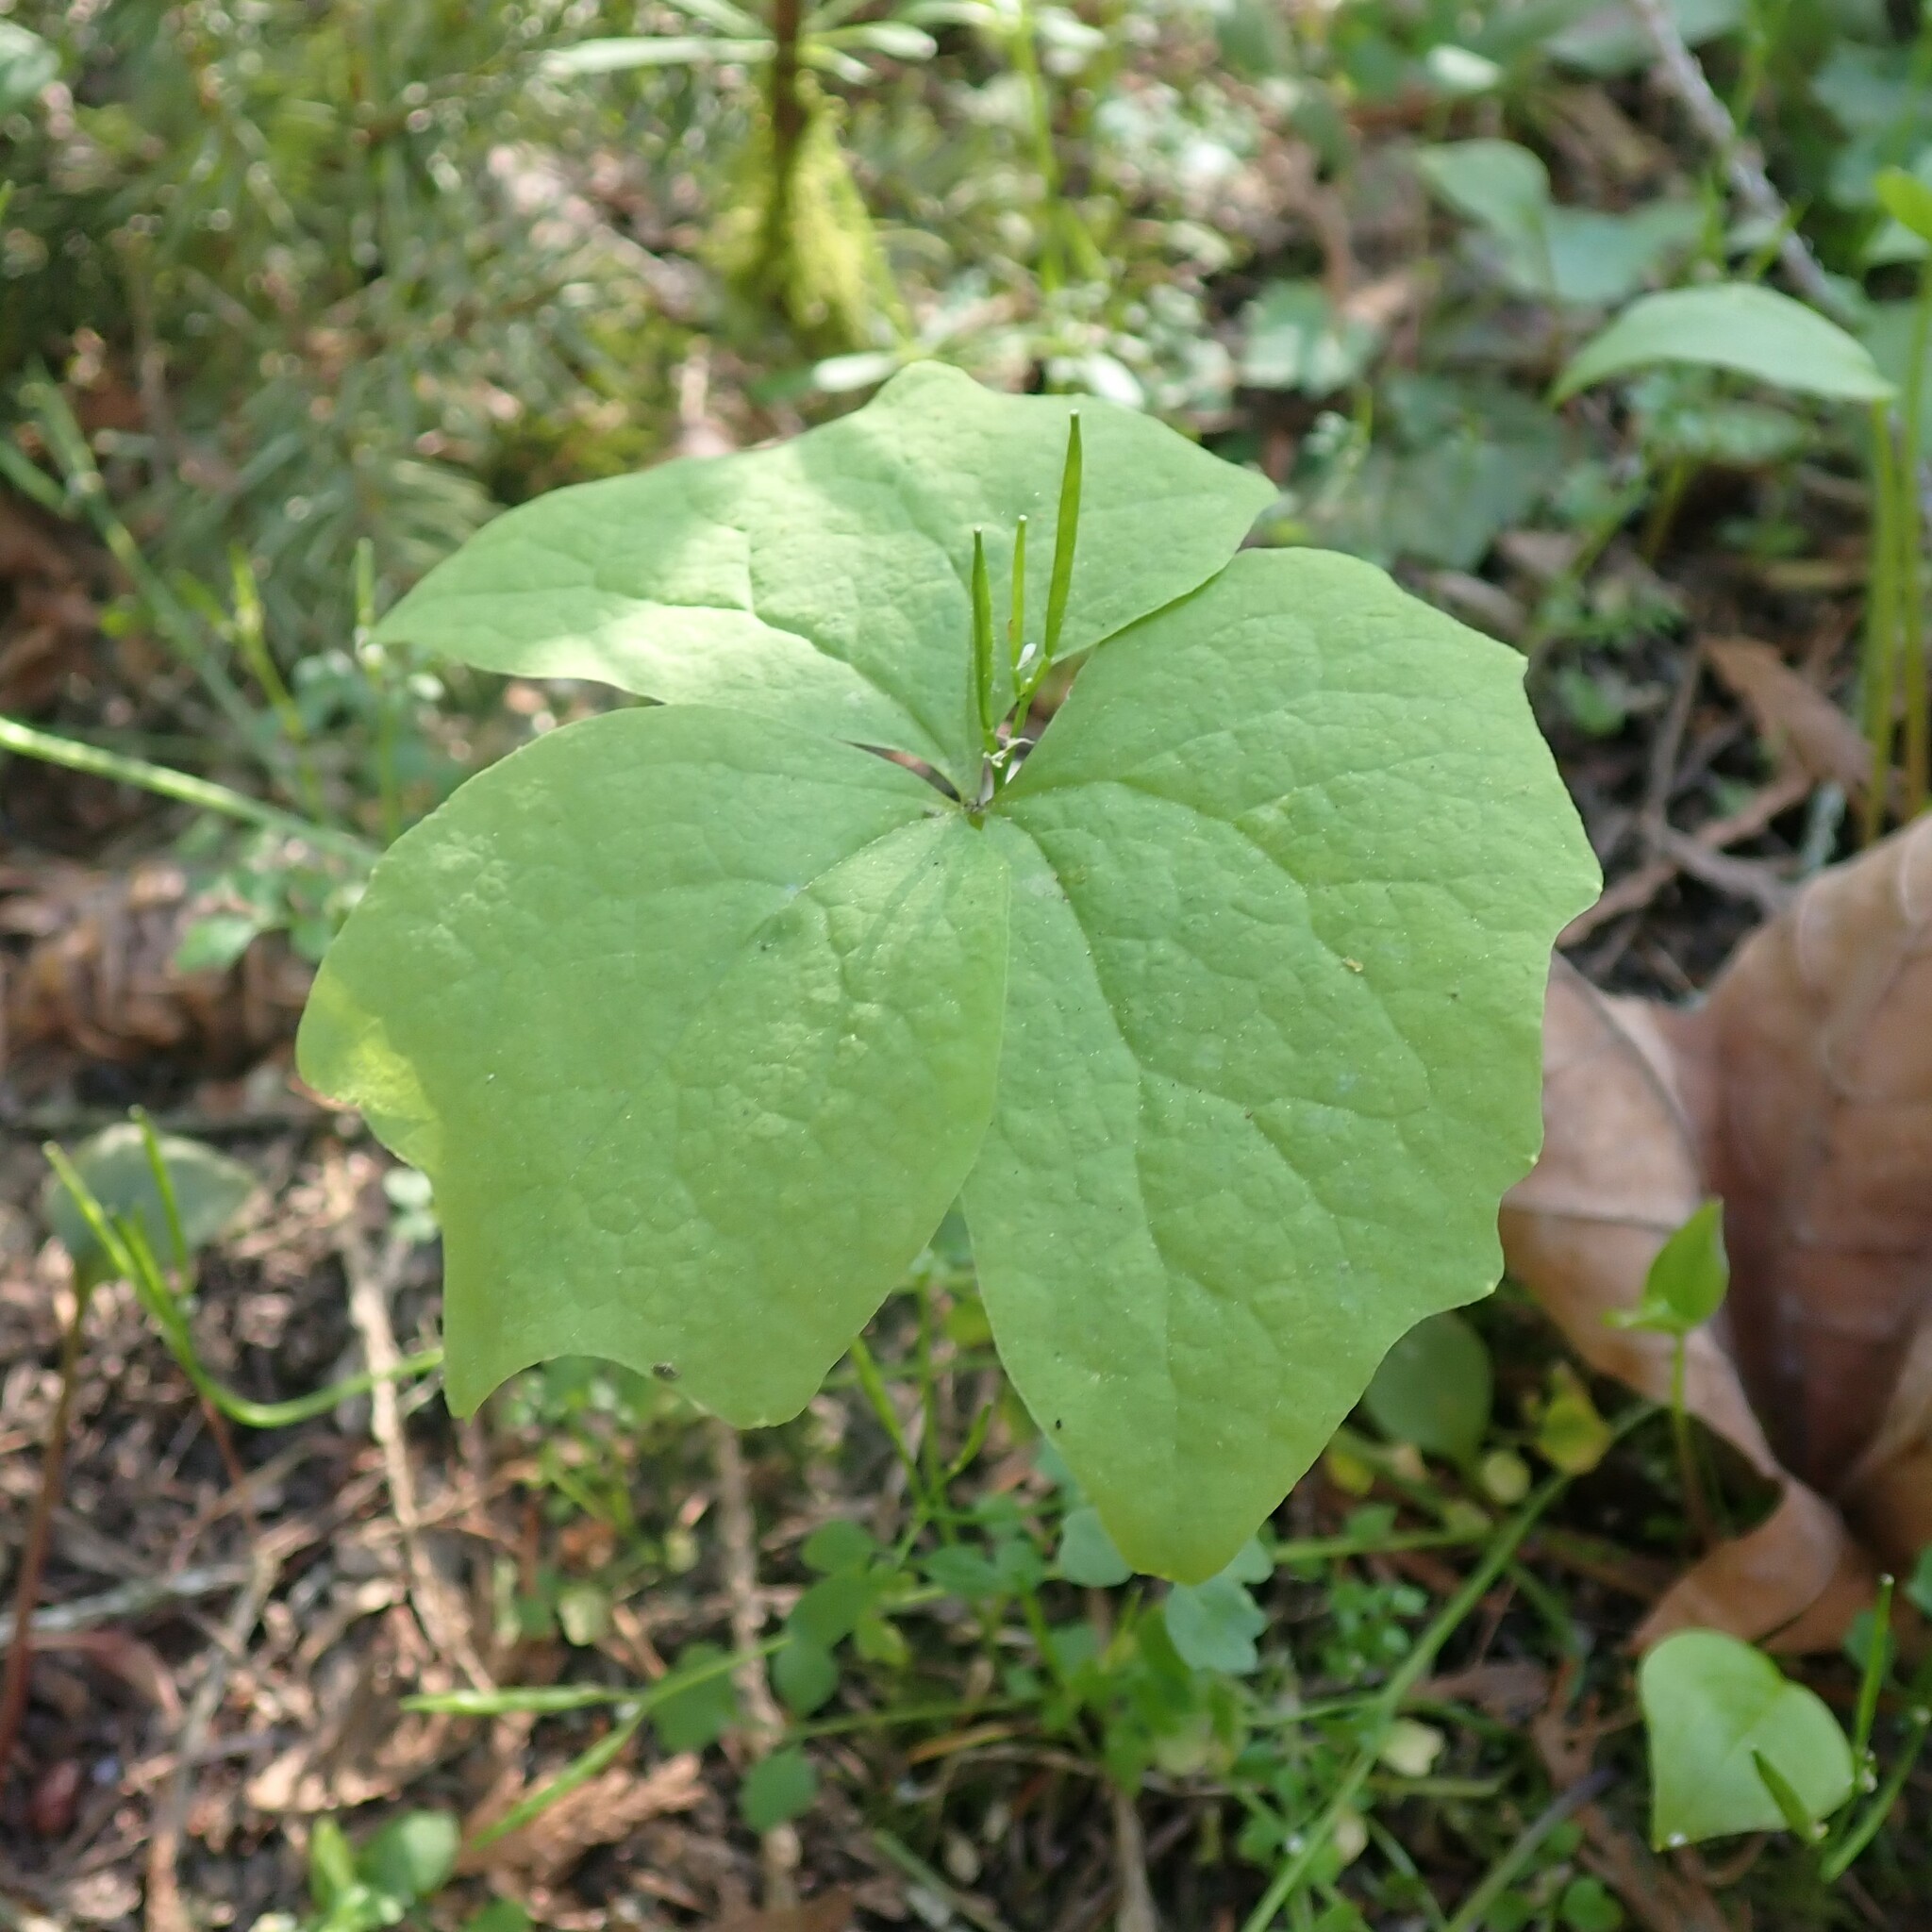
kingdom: Plantae
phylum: Tracheophyta
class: Magnoliopsida
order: Ranunculales
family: Berberidaceae
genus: Achlys
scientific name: Achlys triphylla
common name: Vanilla-leaf
